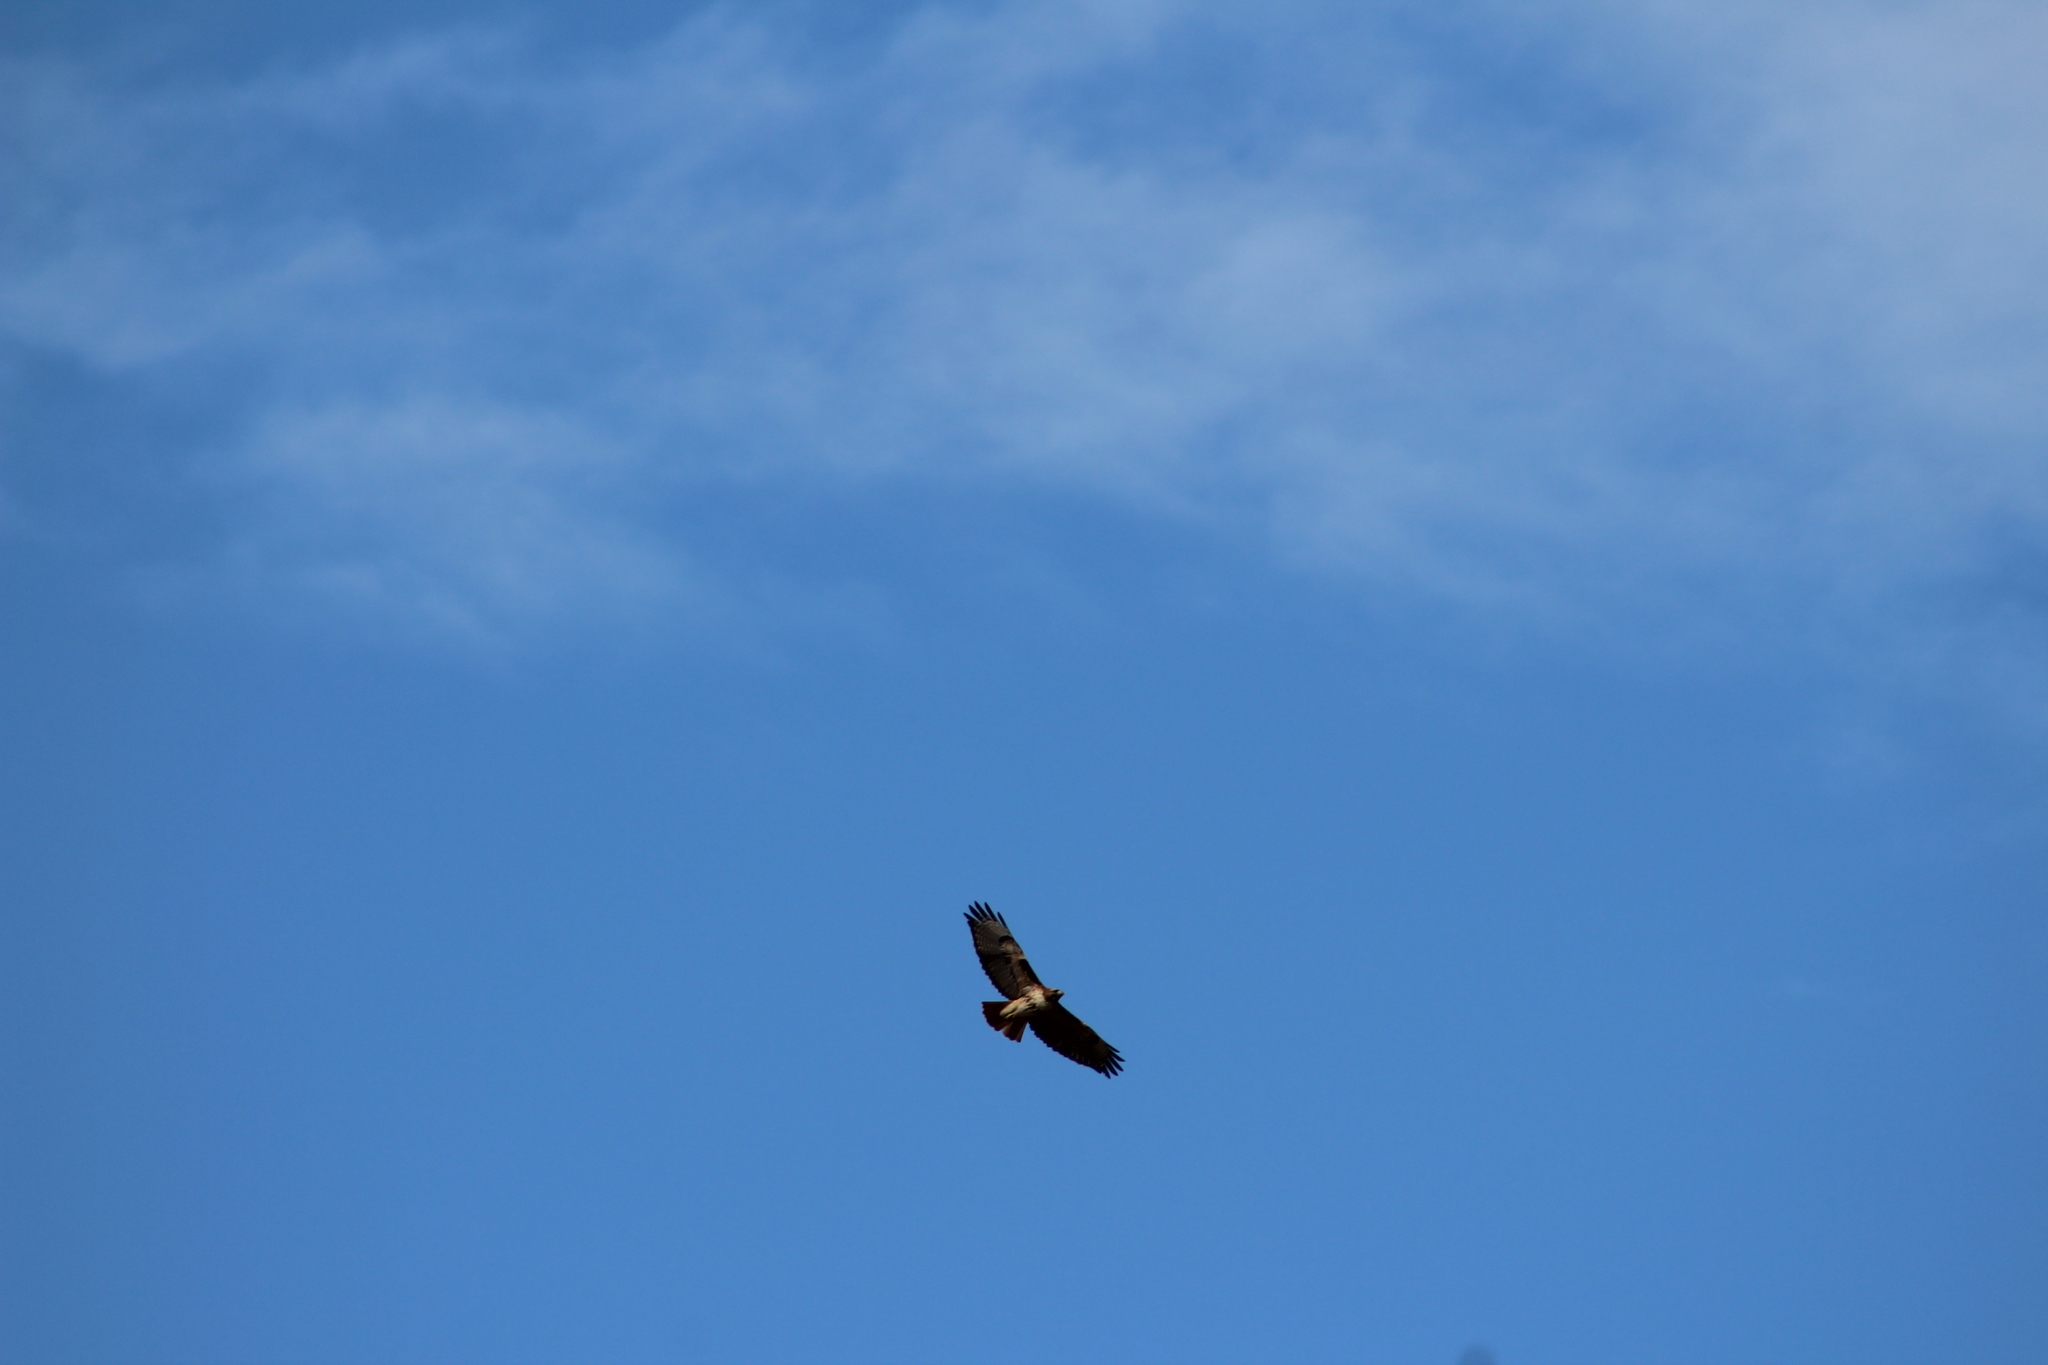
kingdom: Animalia
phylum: Chordata
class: Aves
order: Accipitriformes
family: Accipitridae
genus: Buteo
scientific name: Buteo jamaicensis
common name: Red-tailed hawk
